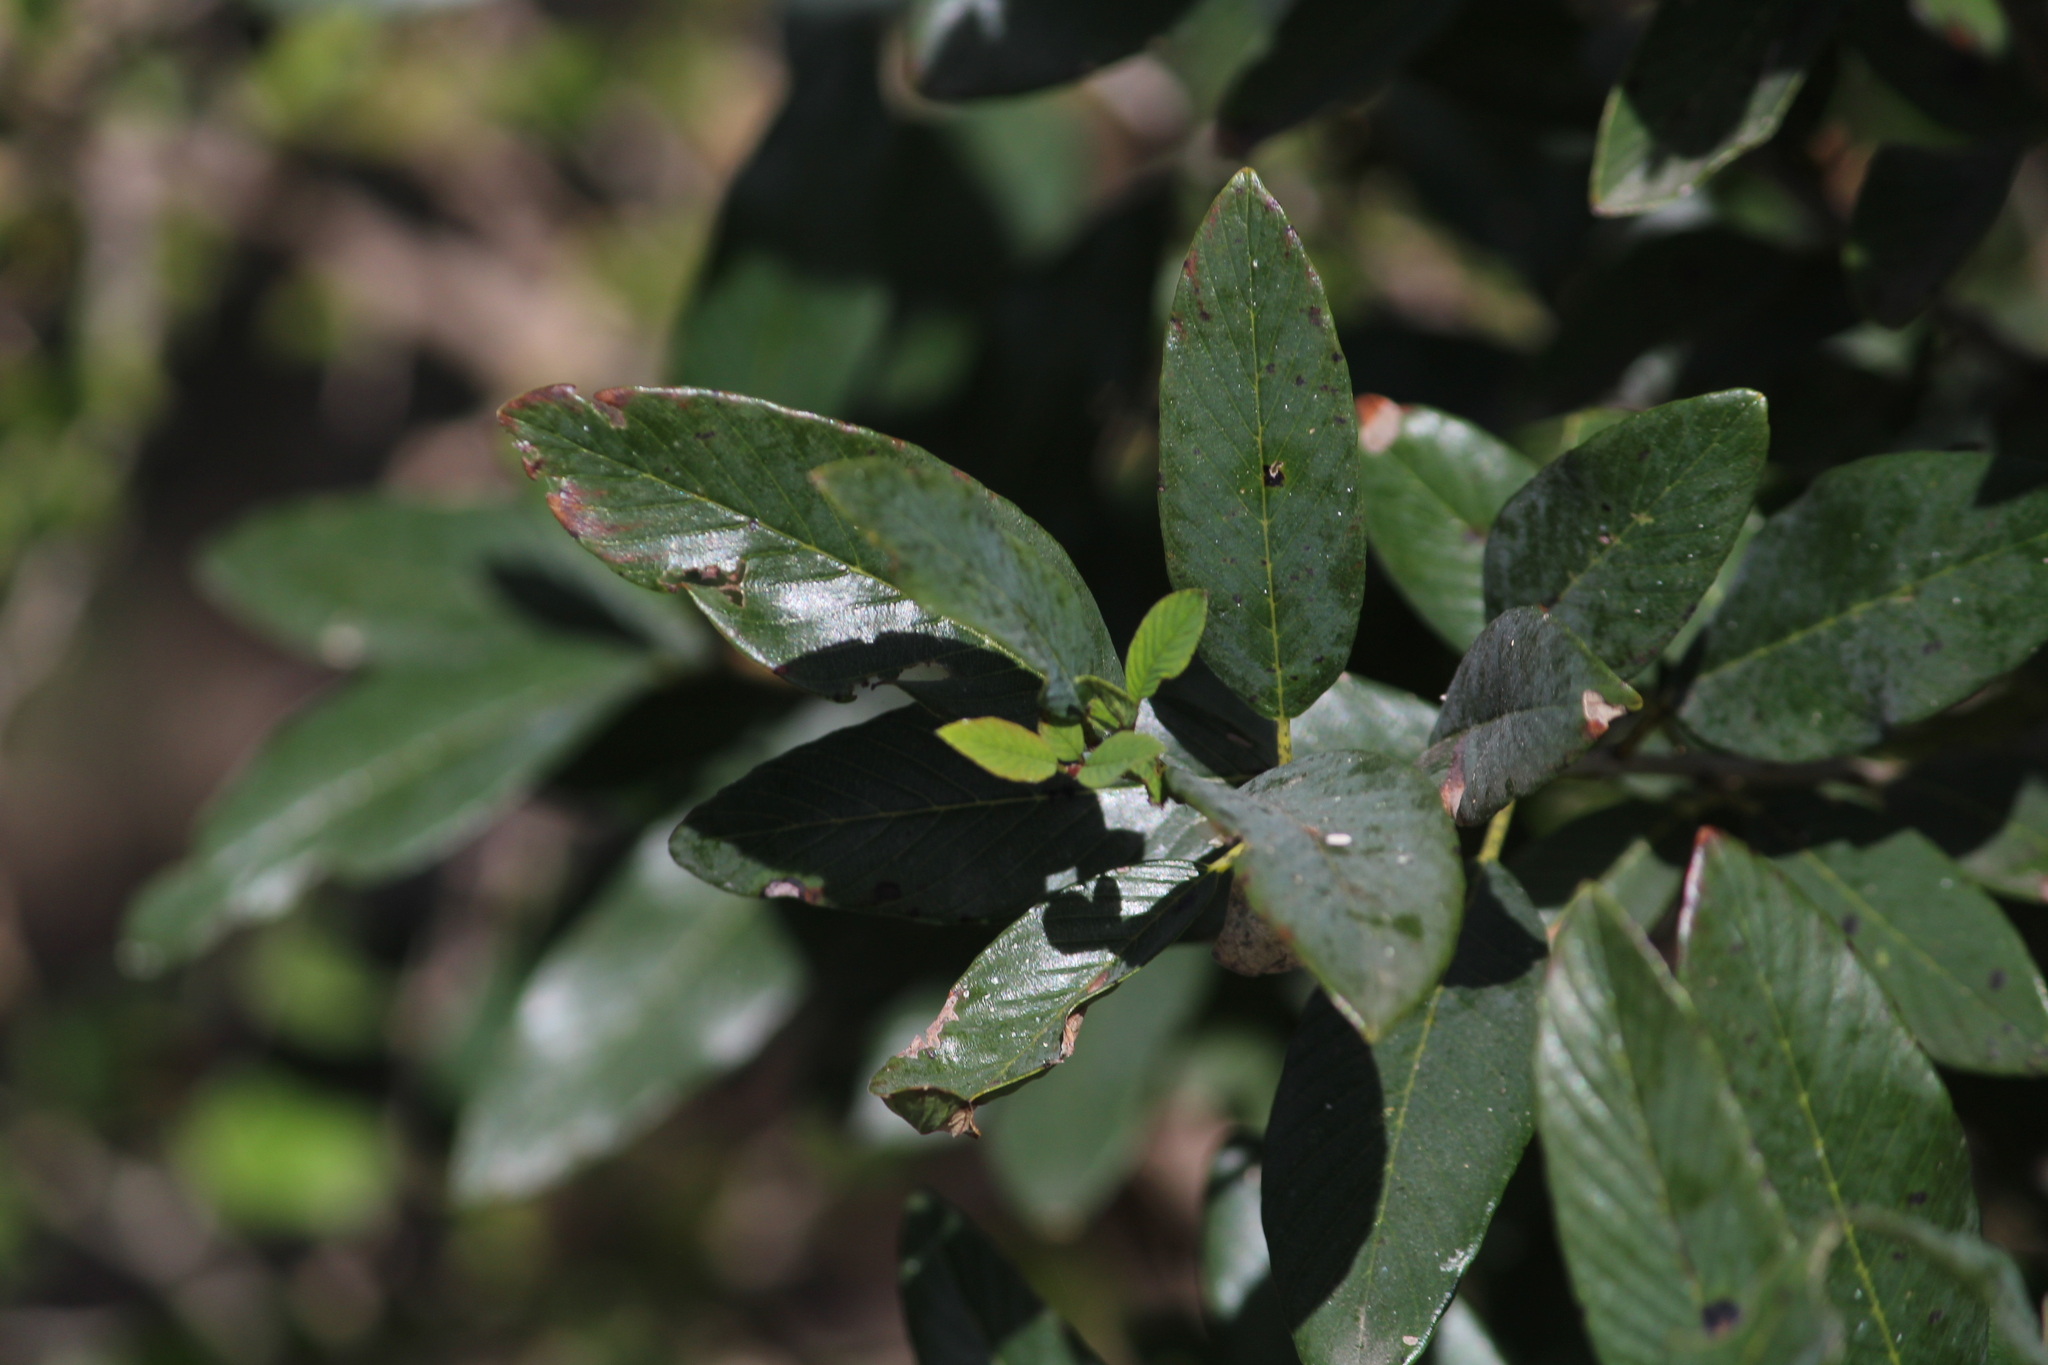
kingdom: Plantae
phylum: Tracheophyta
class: Magnoliopsida
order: Rosales
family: Rhamnaceae
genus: Karwinskia
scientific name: Karwinskia humboldtiana
